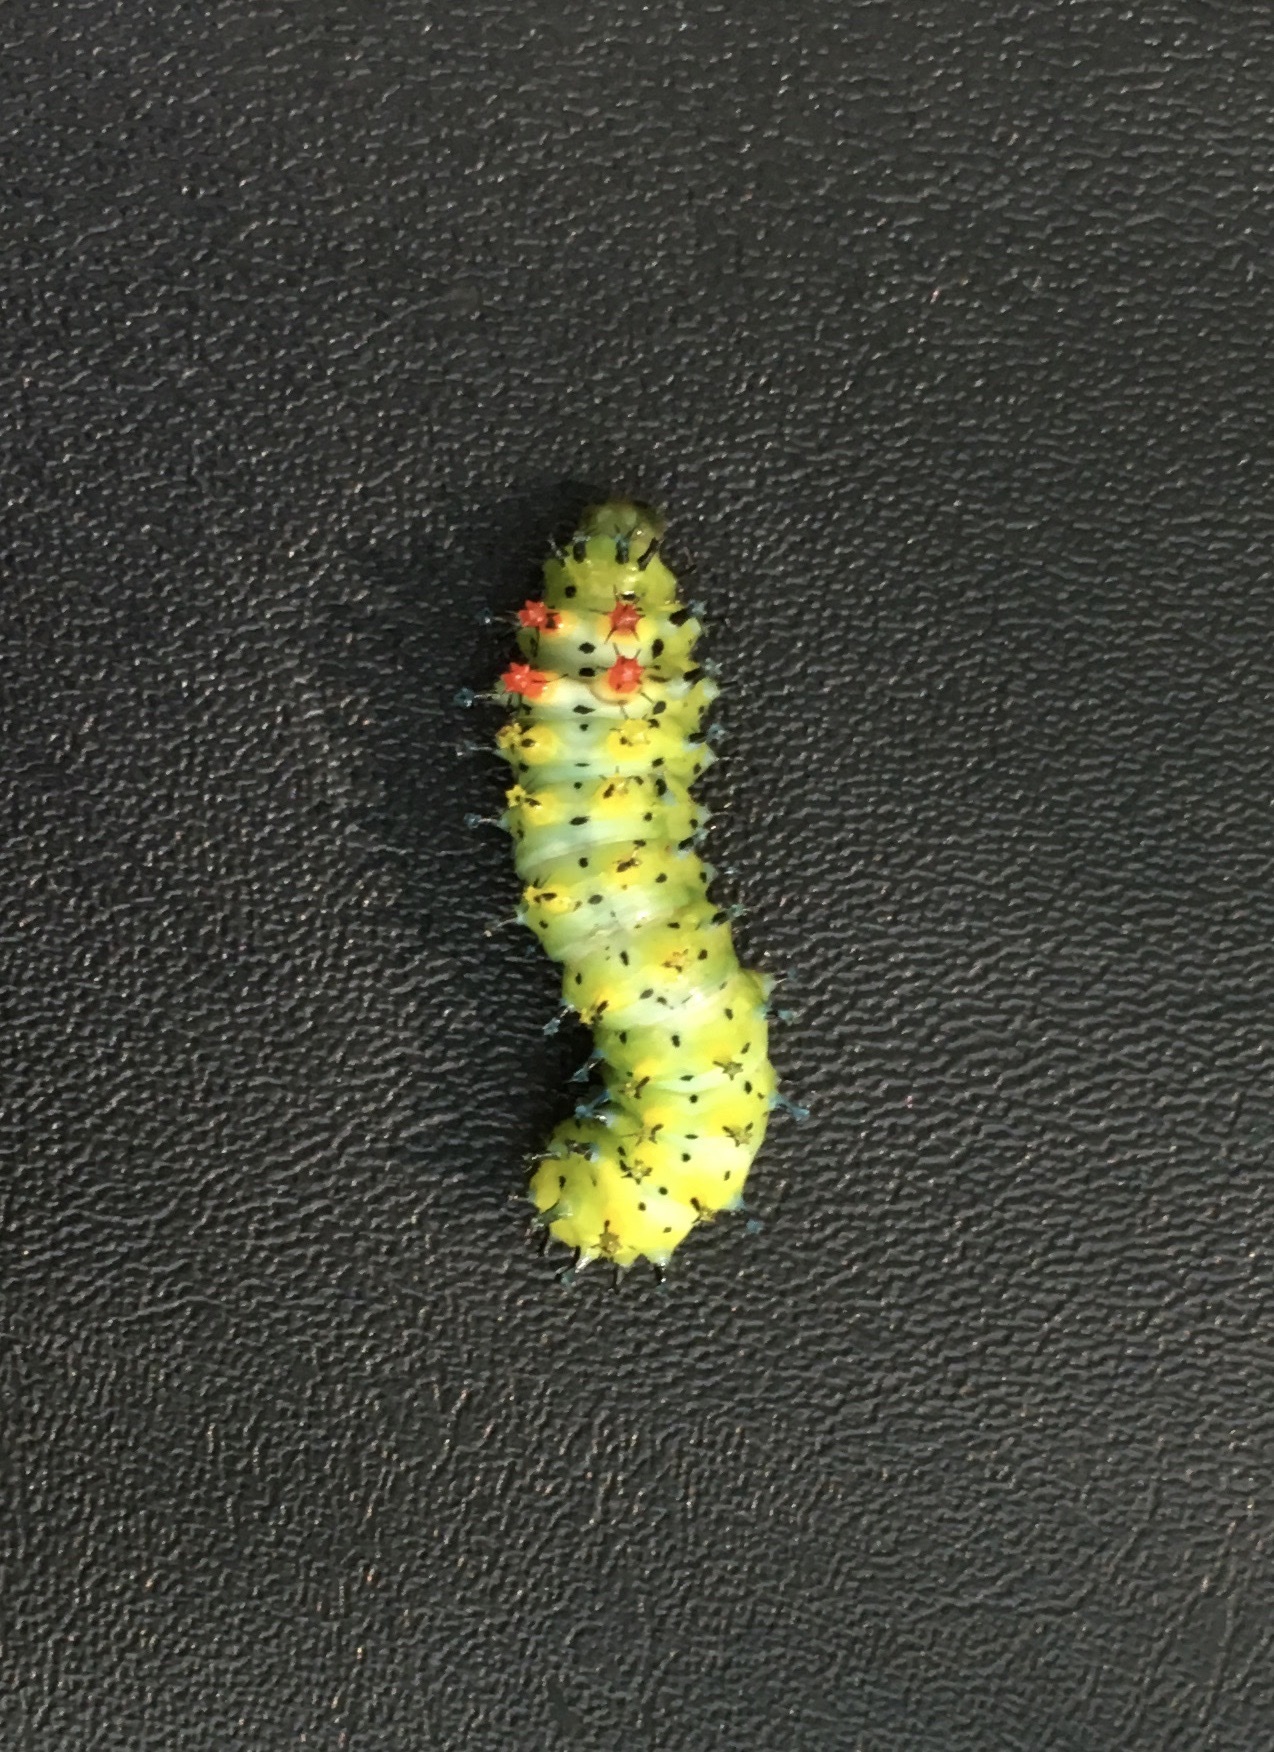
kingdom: Animalia
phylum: Arthropoda
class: Insecta
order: Lepidoptera
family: Saturniidae
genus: Hyalophora
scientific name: Hyalophora cecropia
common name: Cecropia silkmoth
